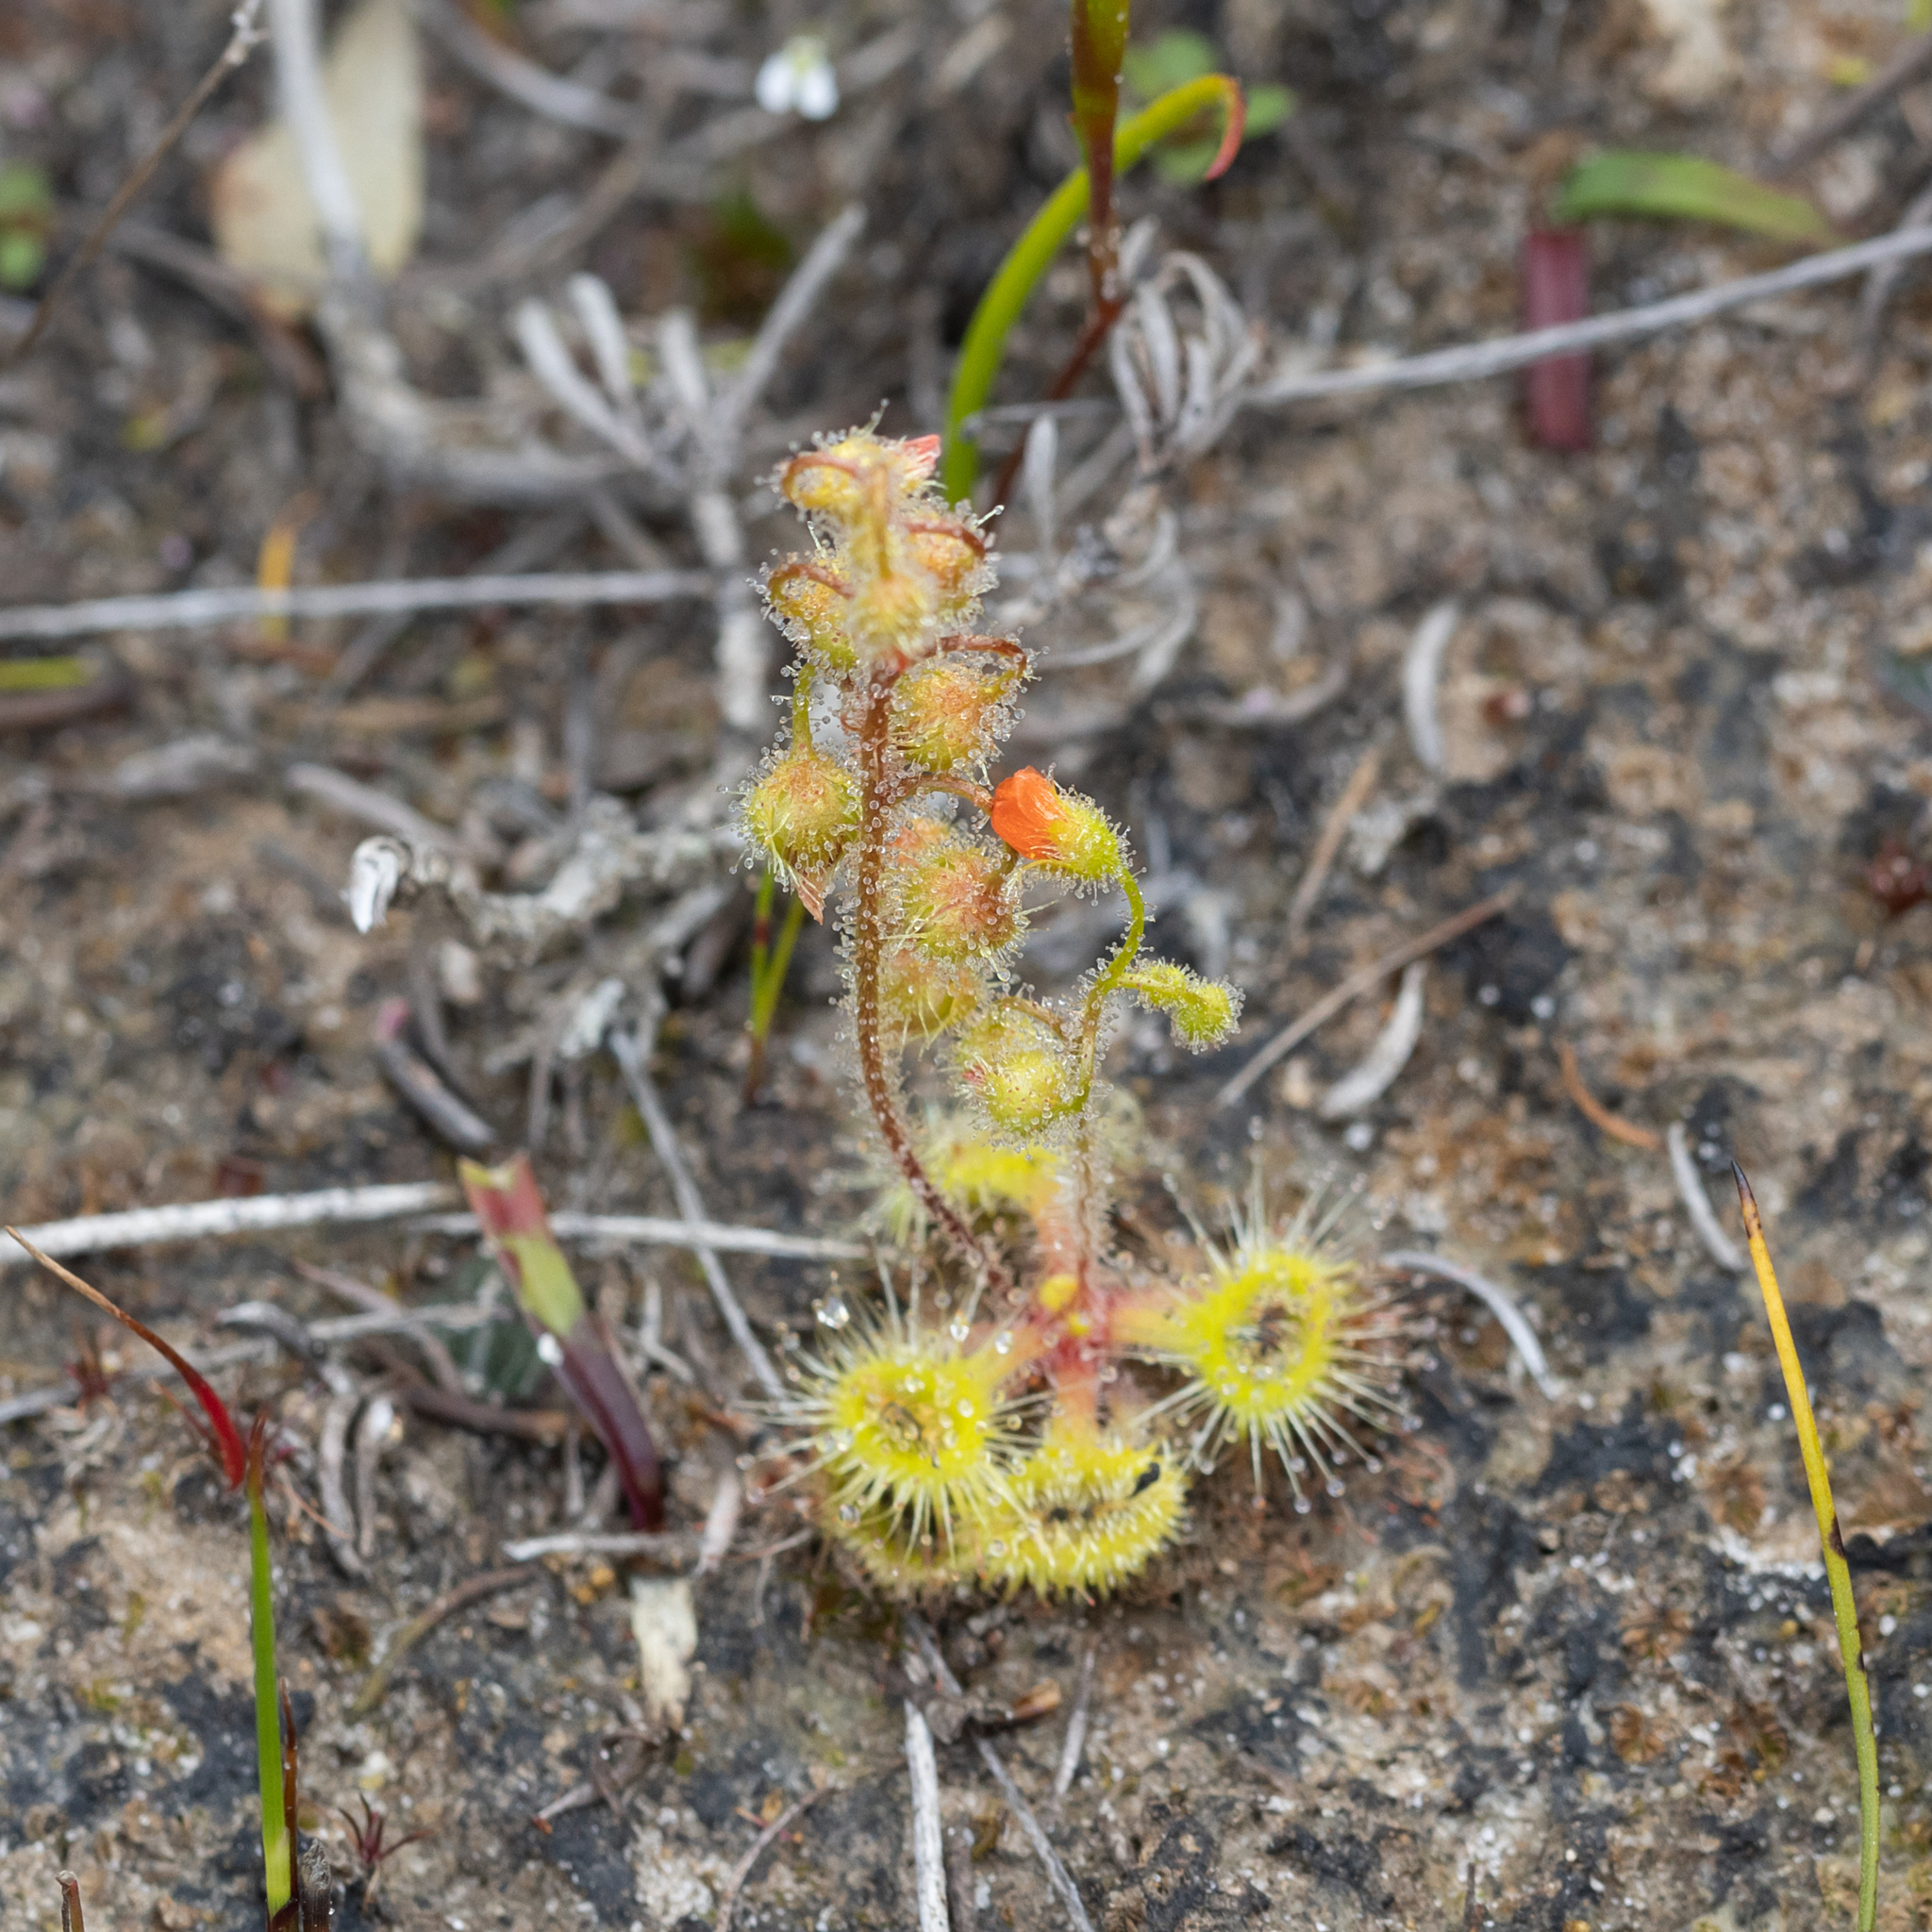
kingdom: Plantae
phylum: Tracheophyta
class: Magnoliopsida
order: Caryophyllales
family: Droseraceae
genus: Drosera
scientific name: Drosera glanduligera
